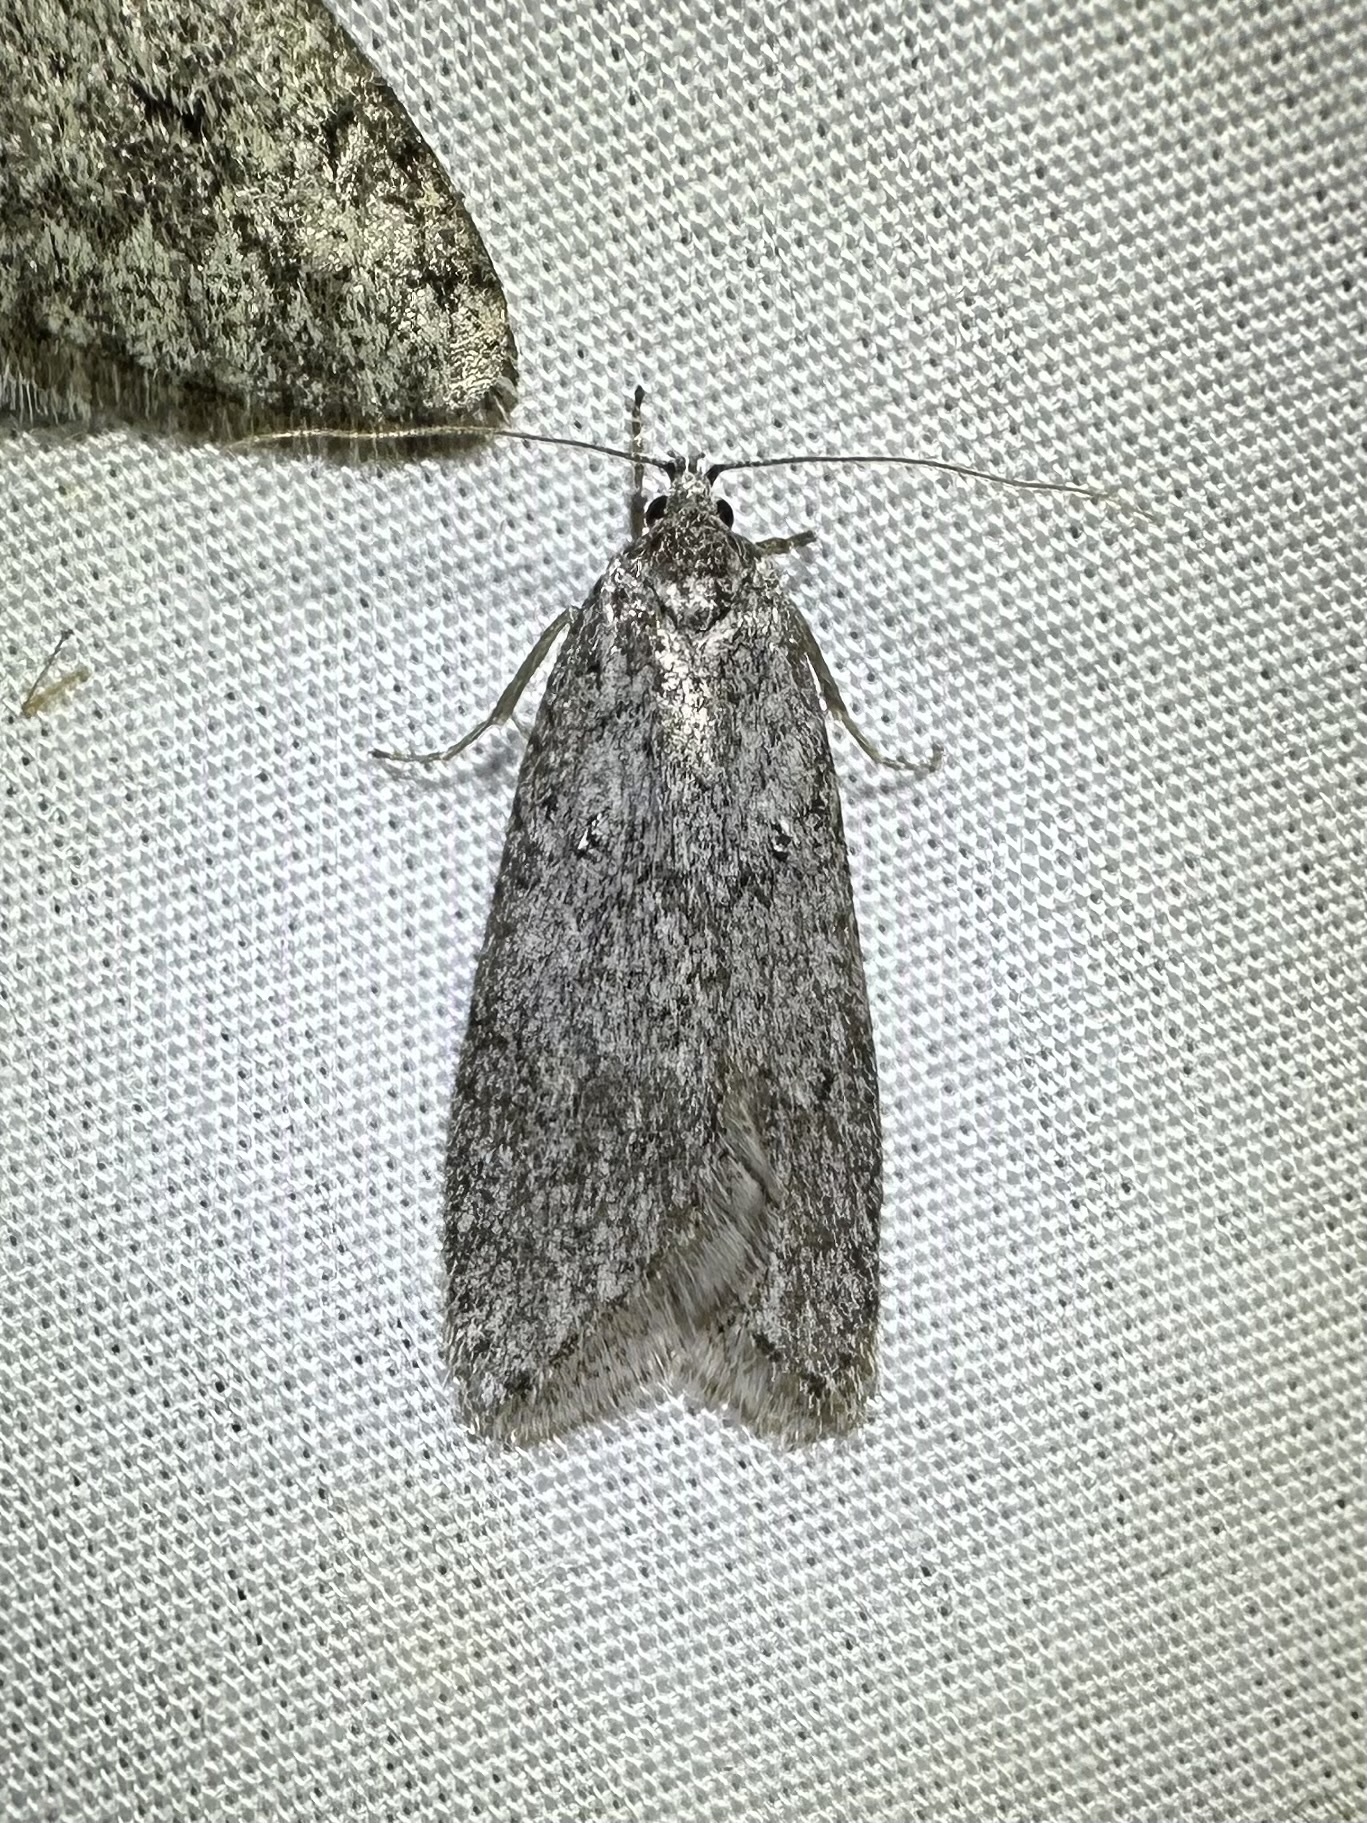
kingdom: Animalia
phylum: Arthropoda
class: Insecta
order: Lepidoptera
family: Depressariidae
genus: Semioscopis
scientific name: Semioscopis inornata
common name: Poplar micromoth
